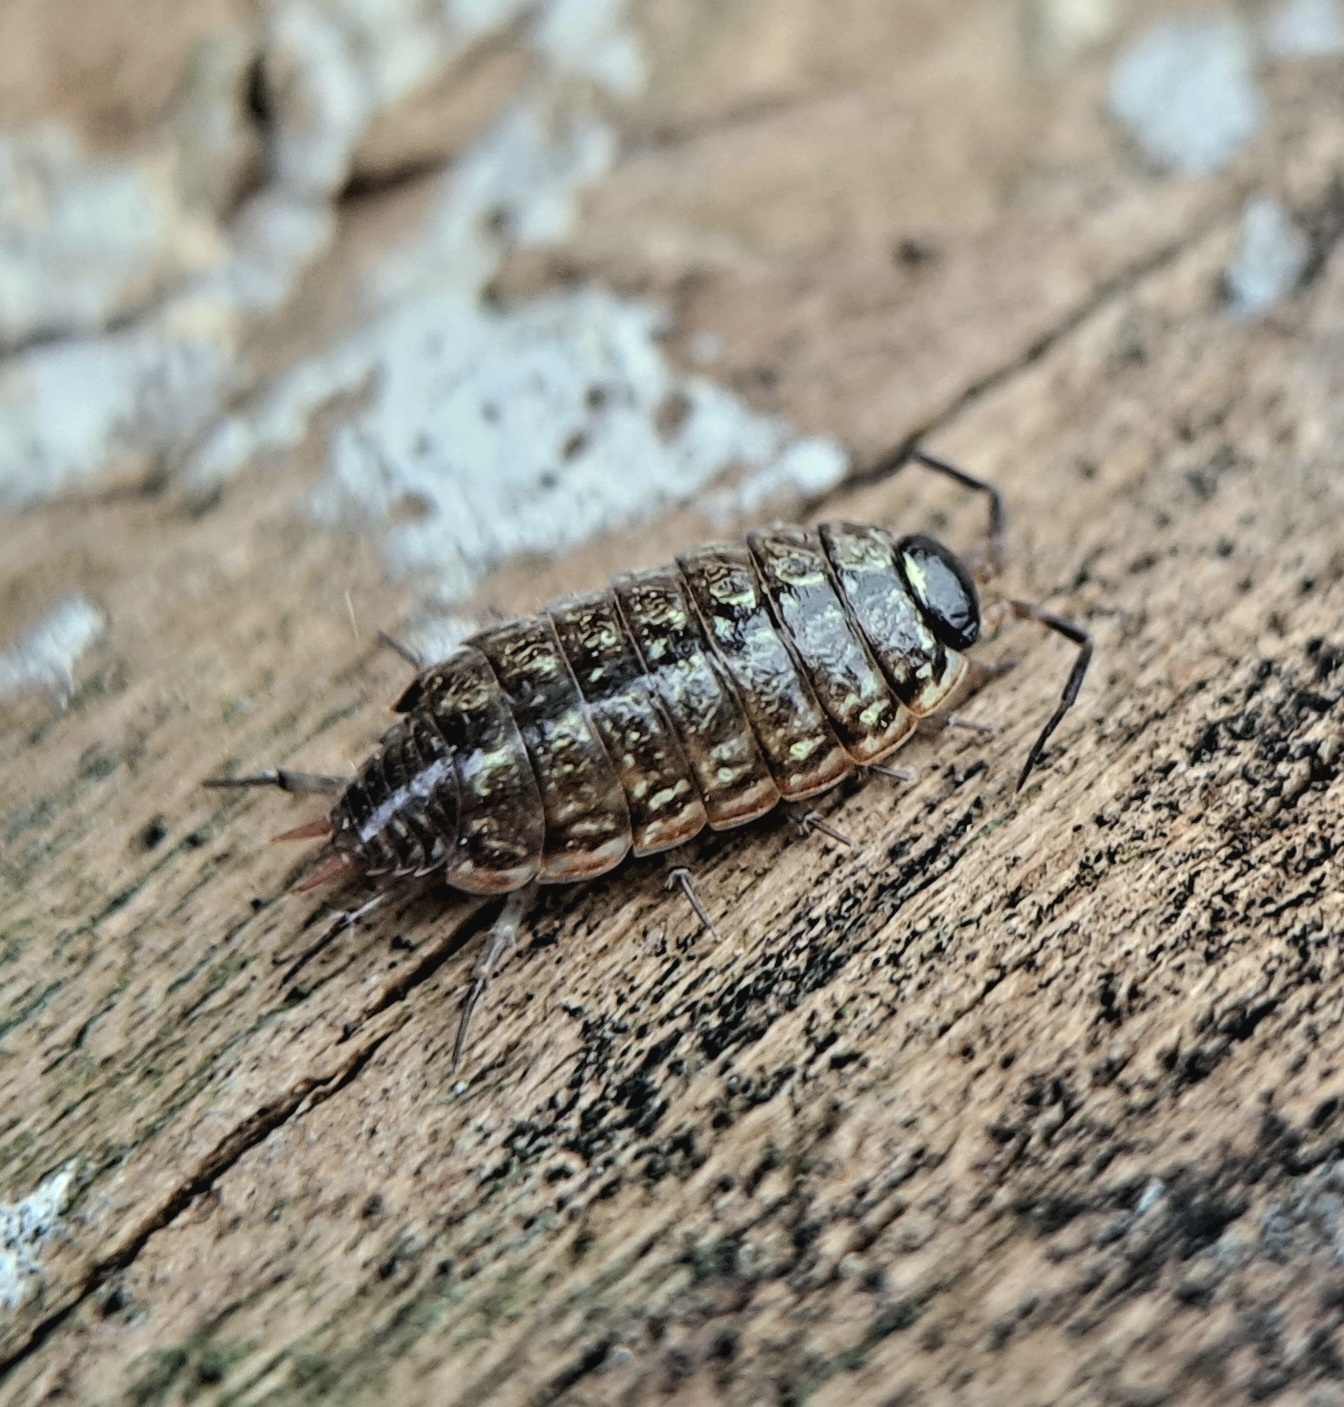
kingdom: Animalia
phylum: Arthropoda
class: Malacostraca
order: Isopoda
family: Philosciidae
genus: Philoscia
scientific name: Philoscia muscorum
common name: Common striped woodlouse
